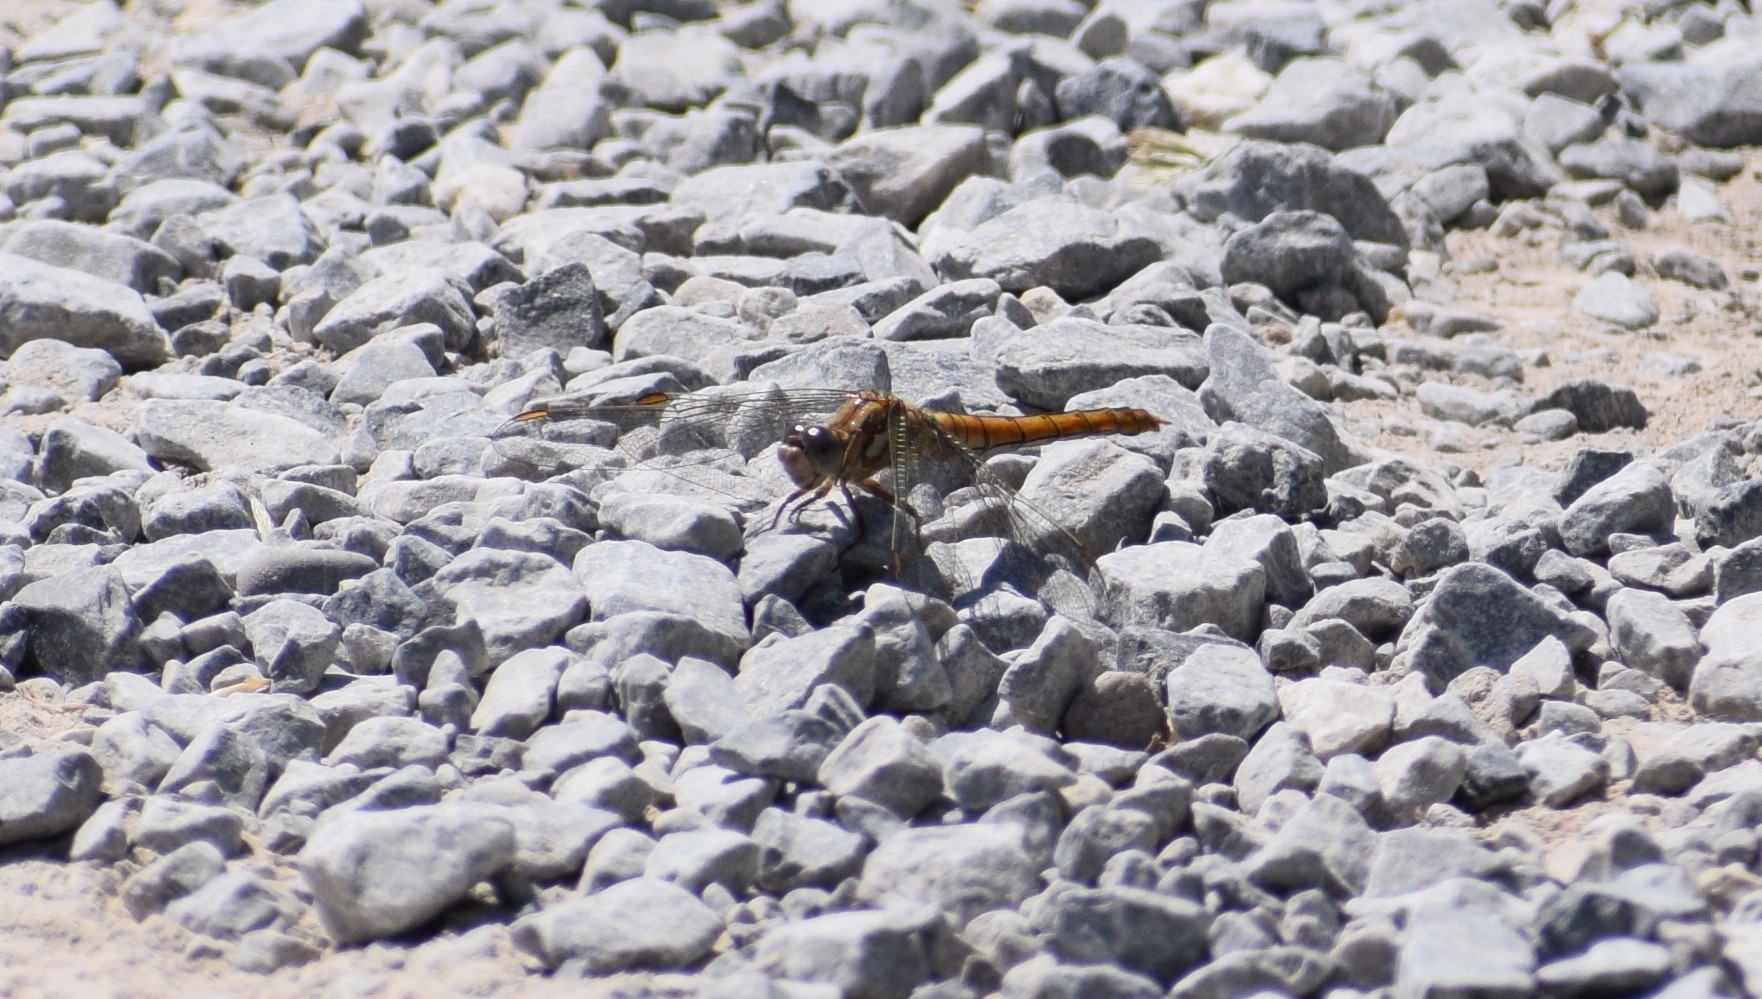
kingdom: Animalia
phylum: Arthropoda
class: Insecta
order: Odonata
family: Libellulidae
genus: Orthetrum
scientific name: Orthetrum brunneum
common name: Southern skimmer
